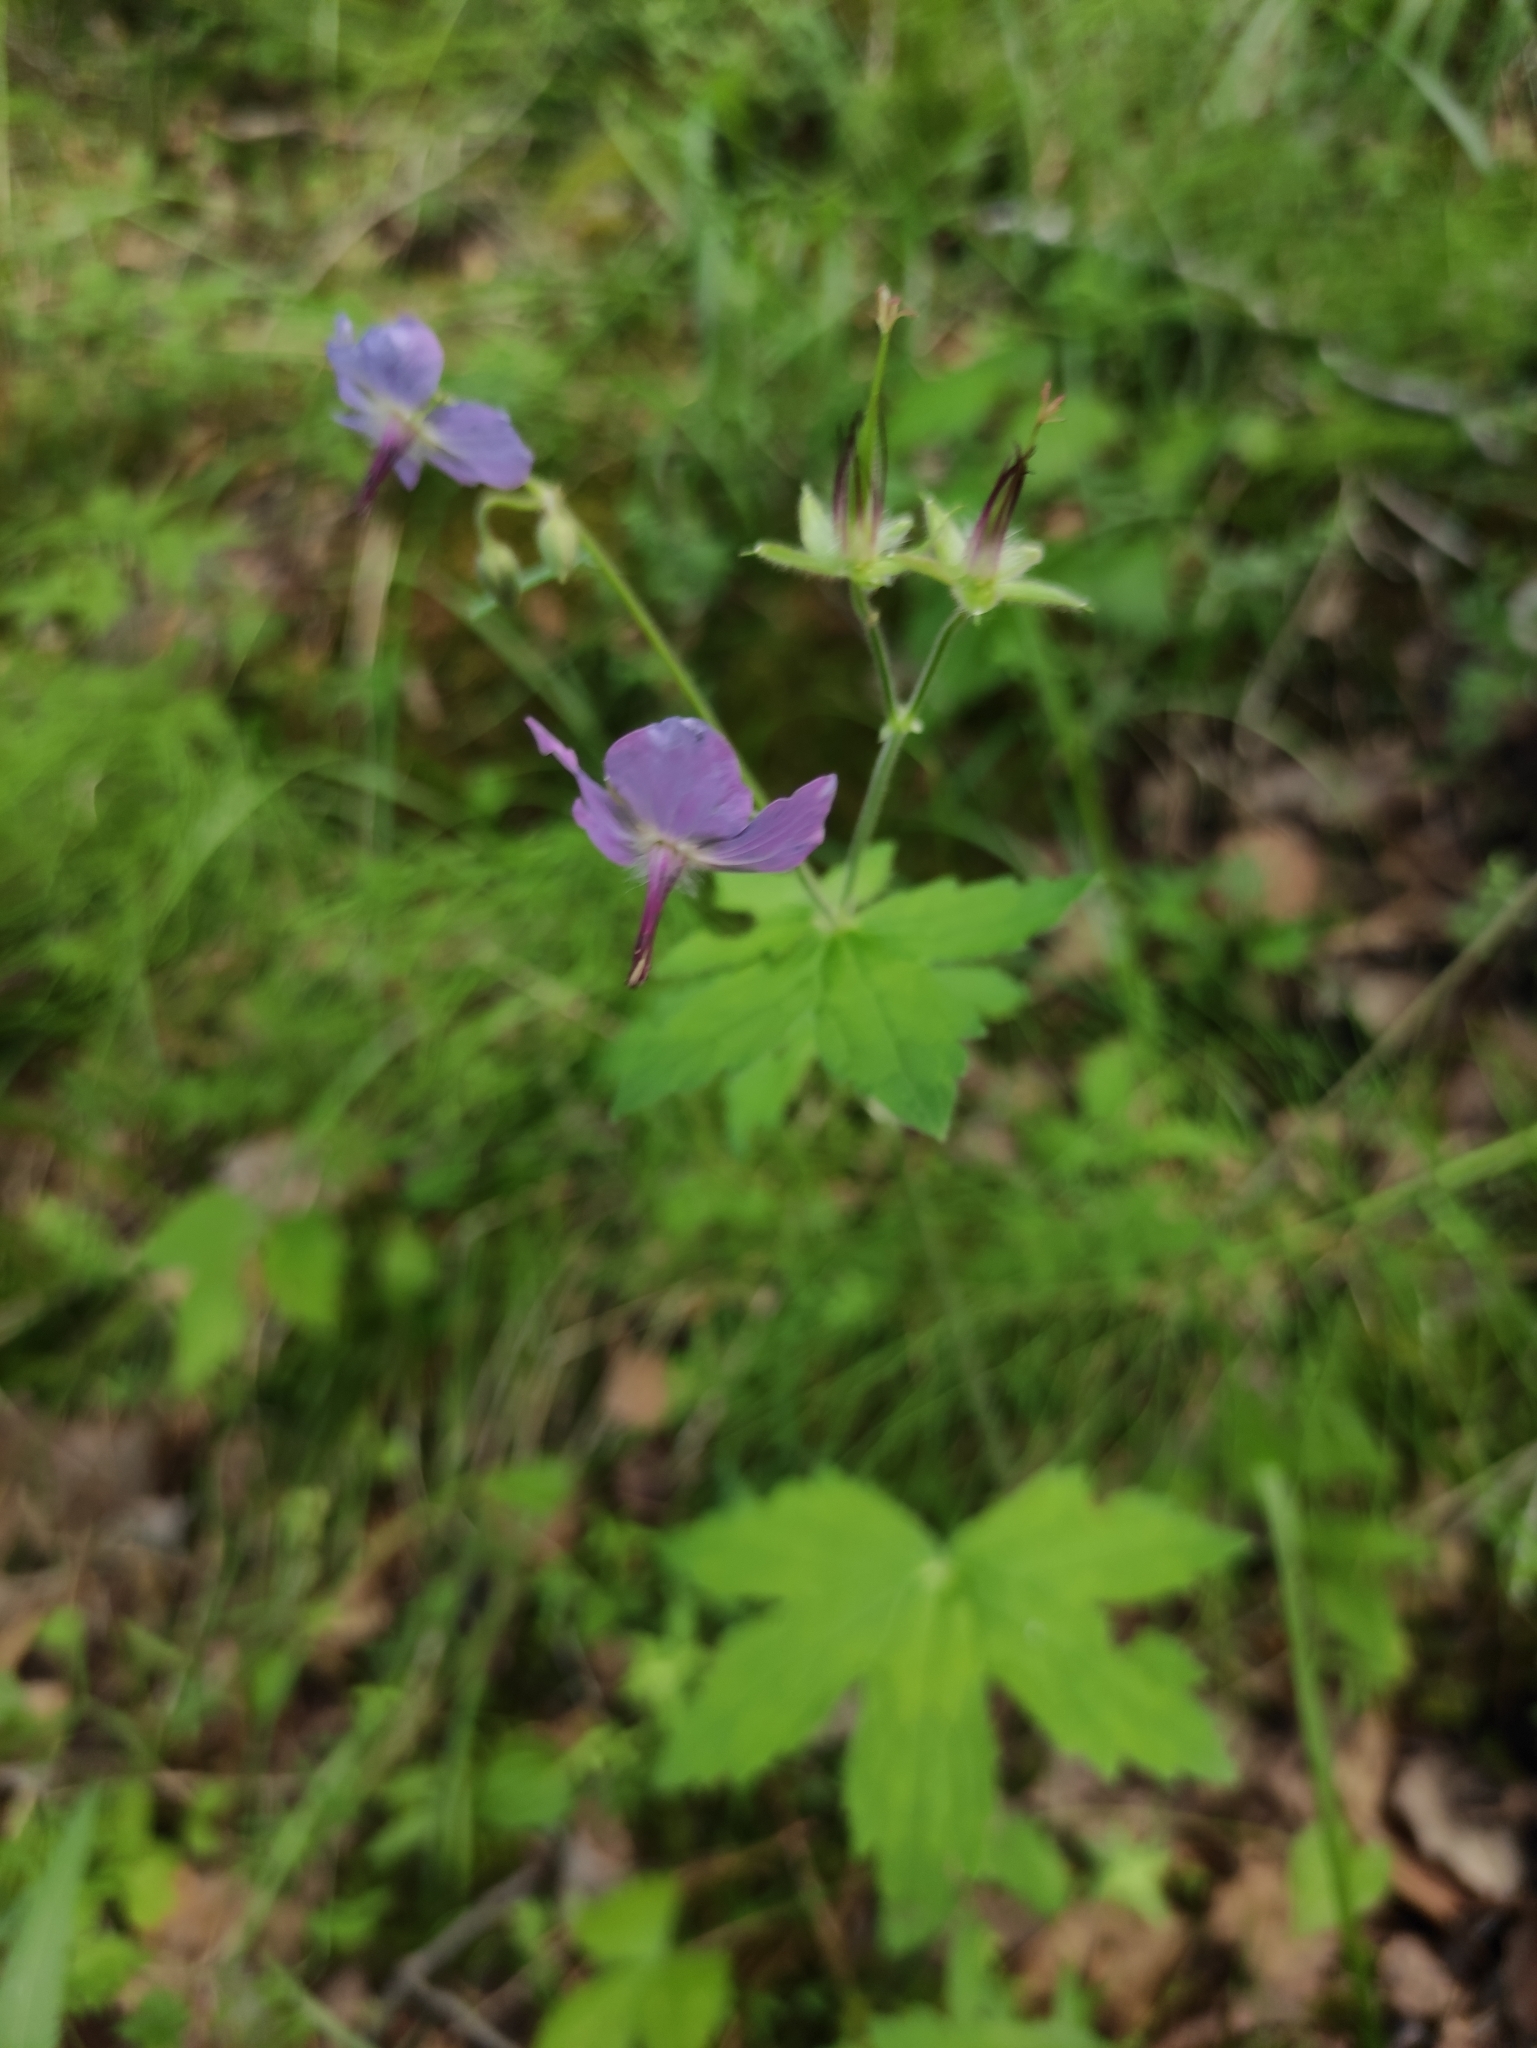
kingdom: Plantae
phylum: Tracheophyta
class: Magnoliopsida
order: Geraniales
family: Geraniaceae
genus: Geranium
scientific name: Geranium platyanthum
